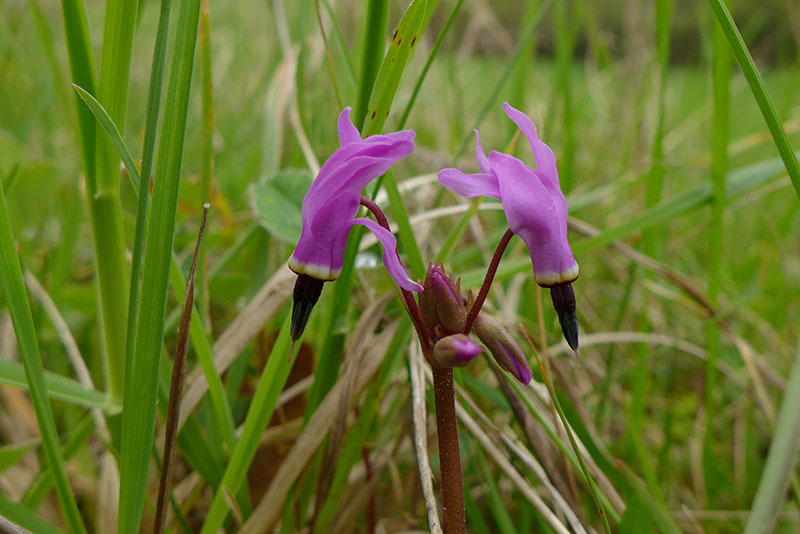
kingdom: Plantae
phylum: Tracheophyta
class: Magnoliopsida
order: Ericales
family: Primulaceae
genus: Dodecatheon
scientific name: Dodecatheon hendersonii
